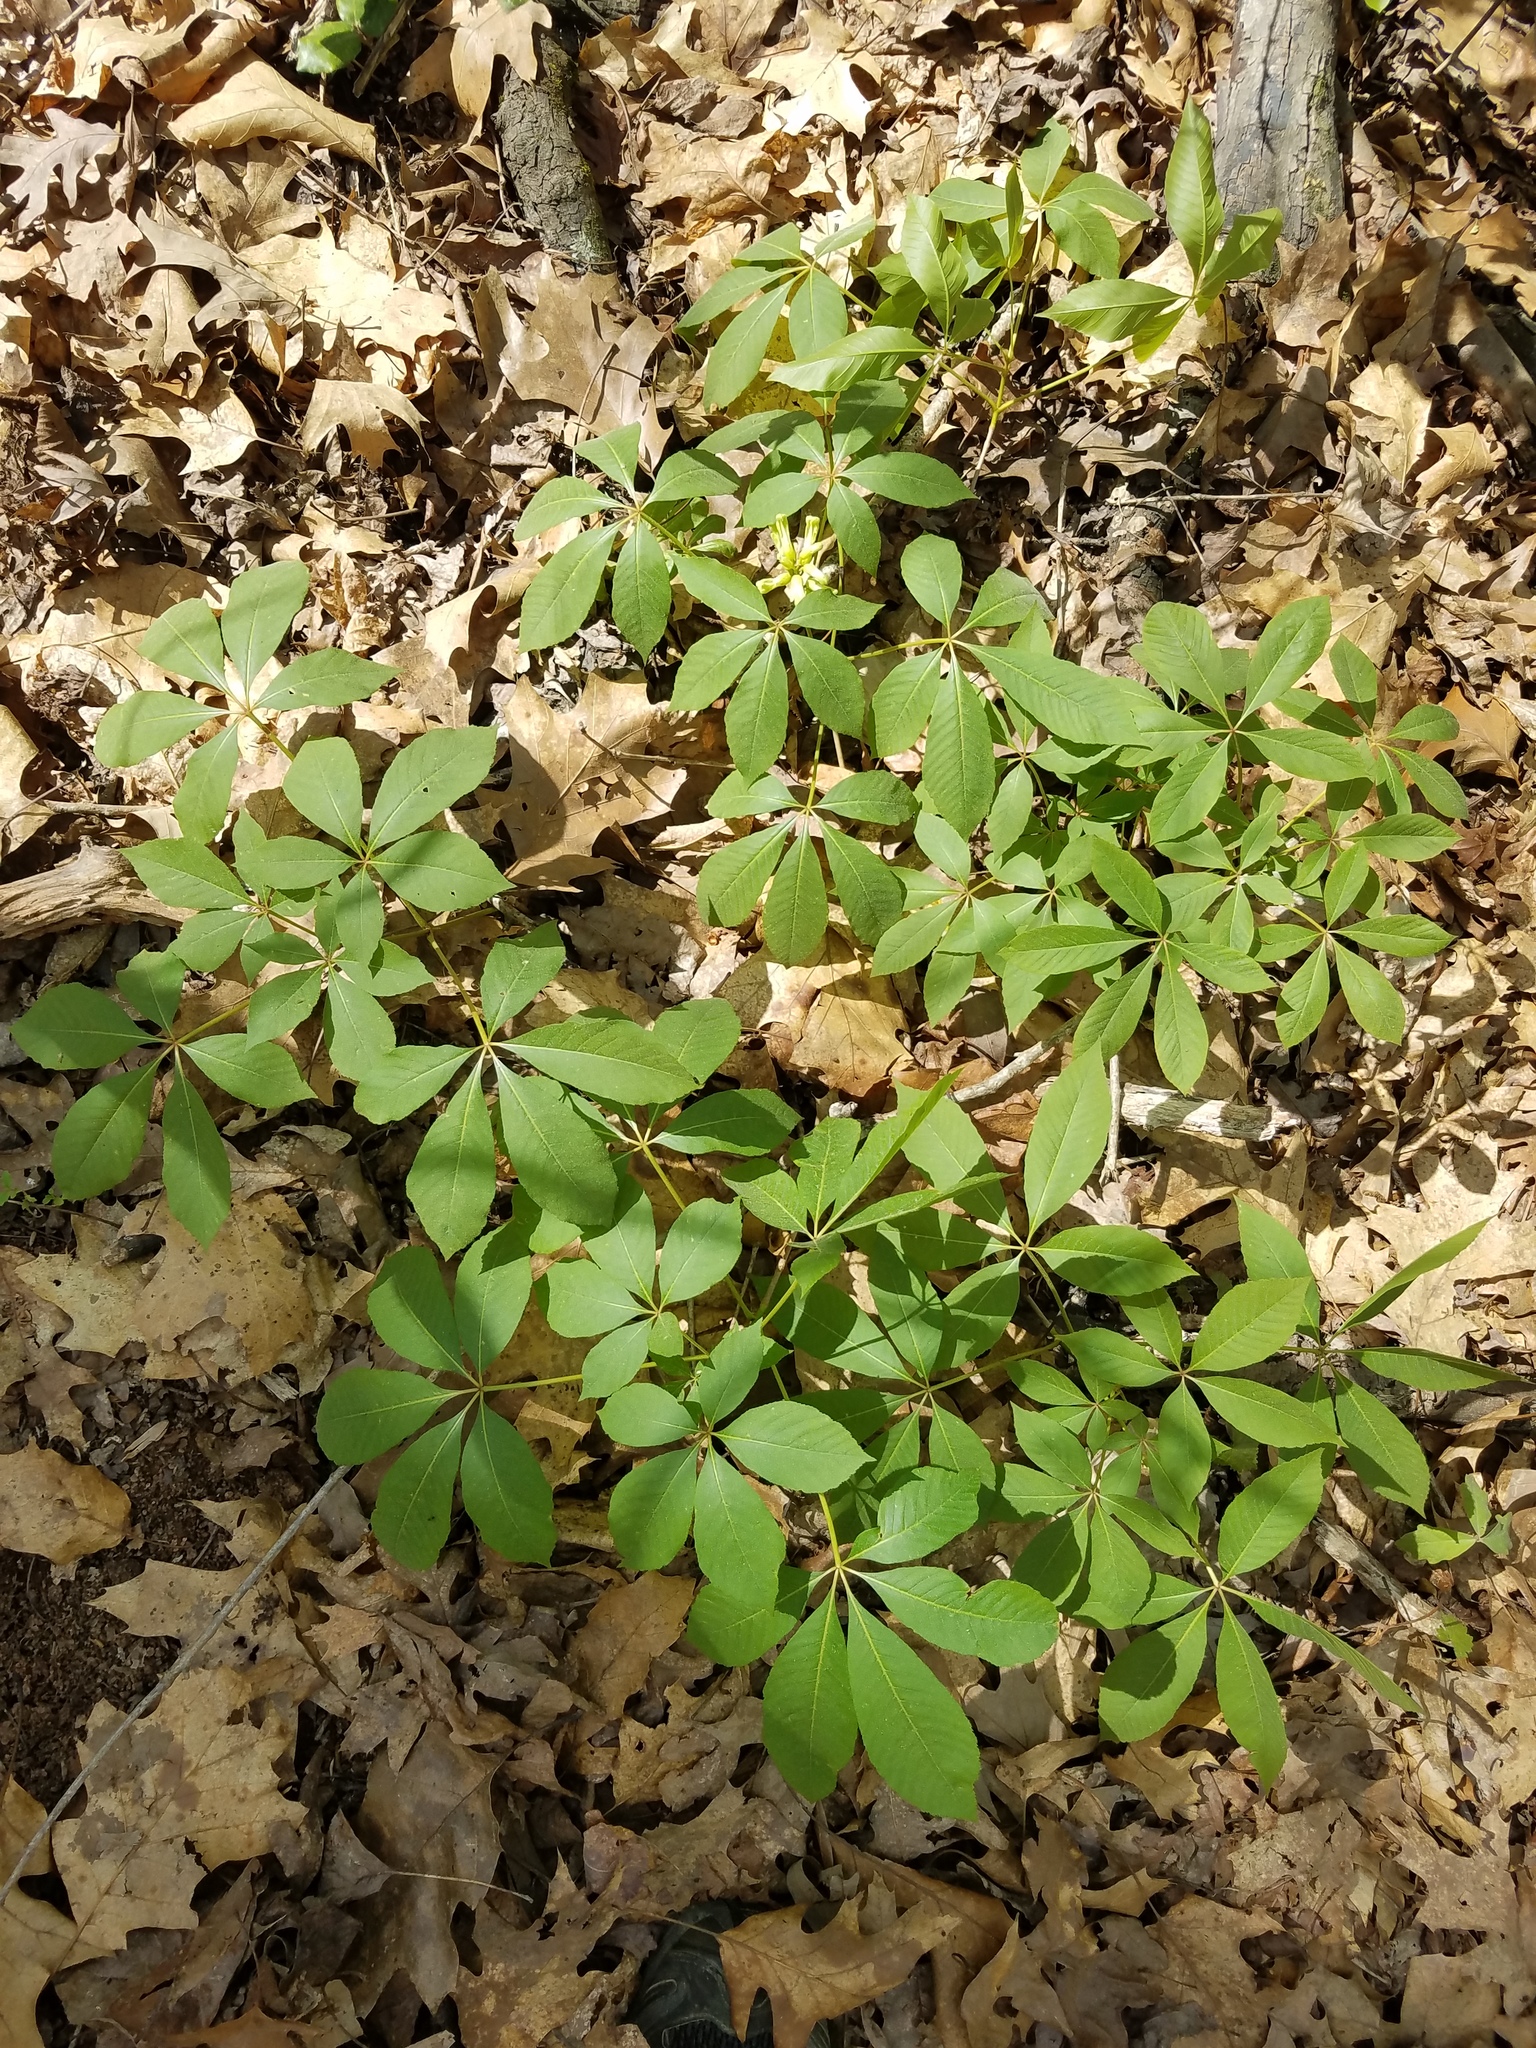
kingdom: Plantae
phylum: Tracheophyta
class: Magnoliopsida
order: Sapindales
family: Sapindaceae
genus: Aesculus
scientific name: Aesculus sylvatica
